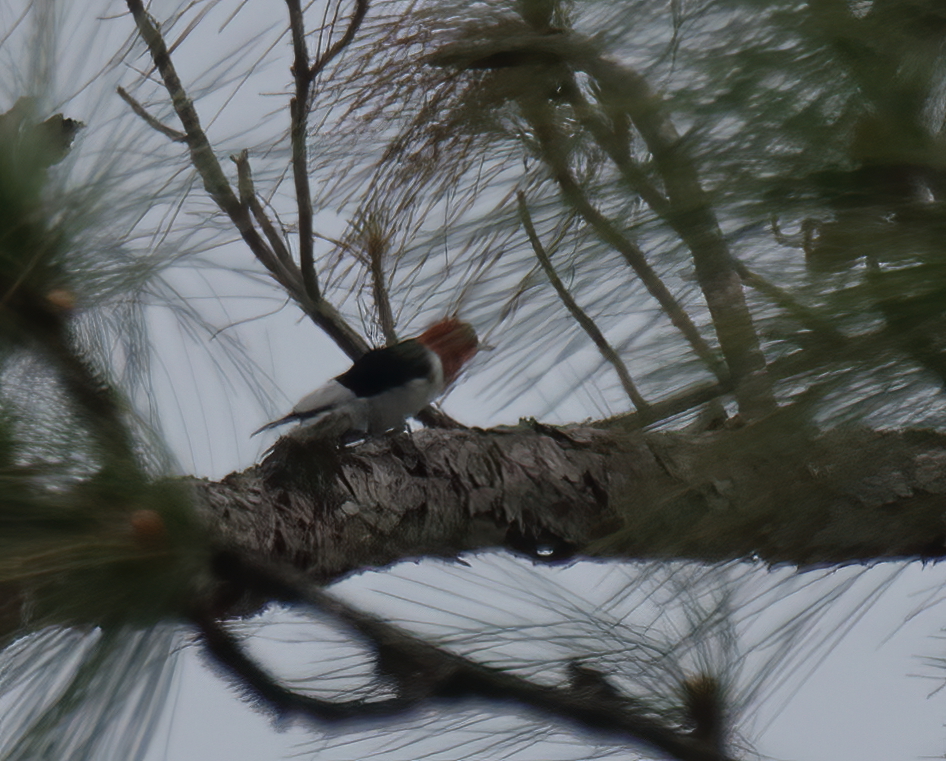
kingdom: Animalia
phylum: Chordata
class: Aves
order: Piciformes
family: Picidae
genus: Melanerpes
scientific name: Melanerpes erythrocephalus
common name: Red-headed woodpecker
